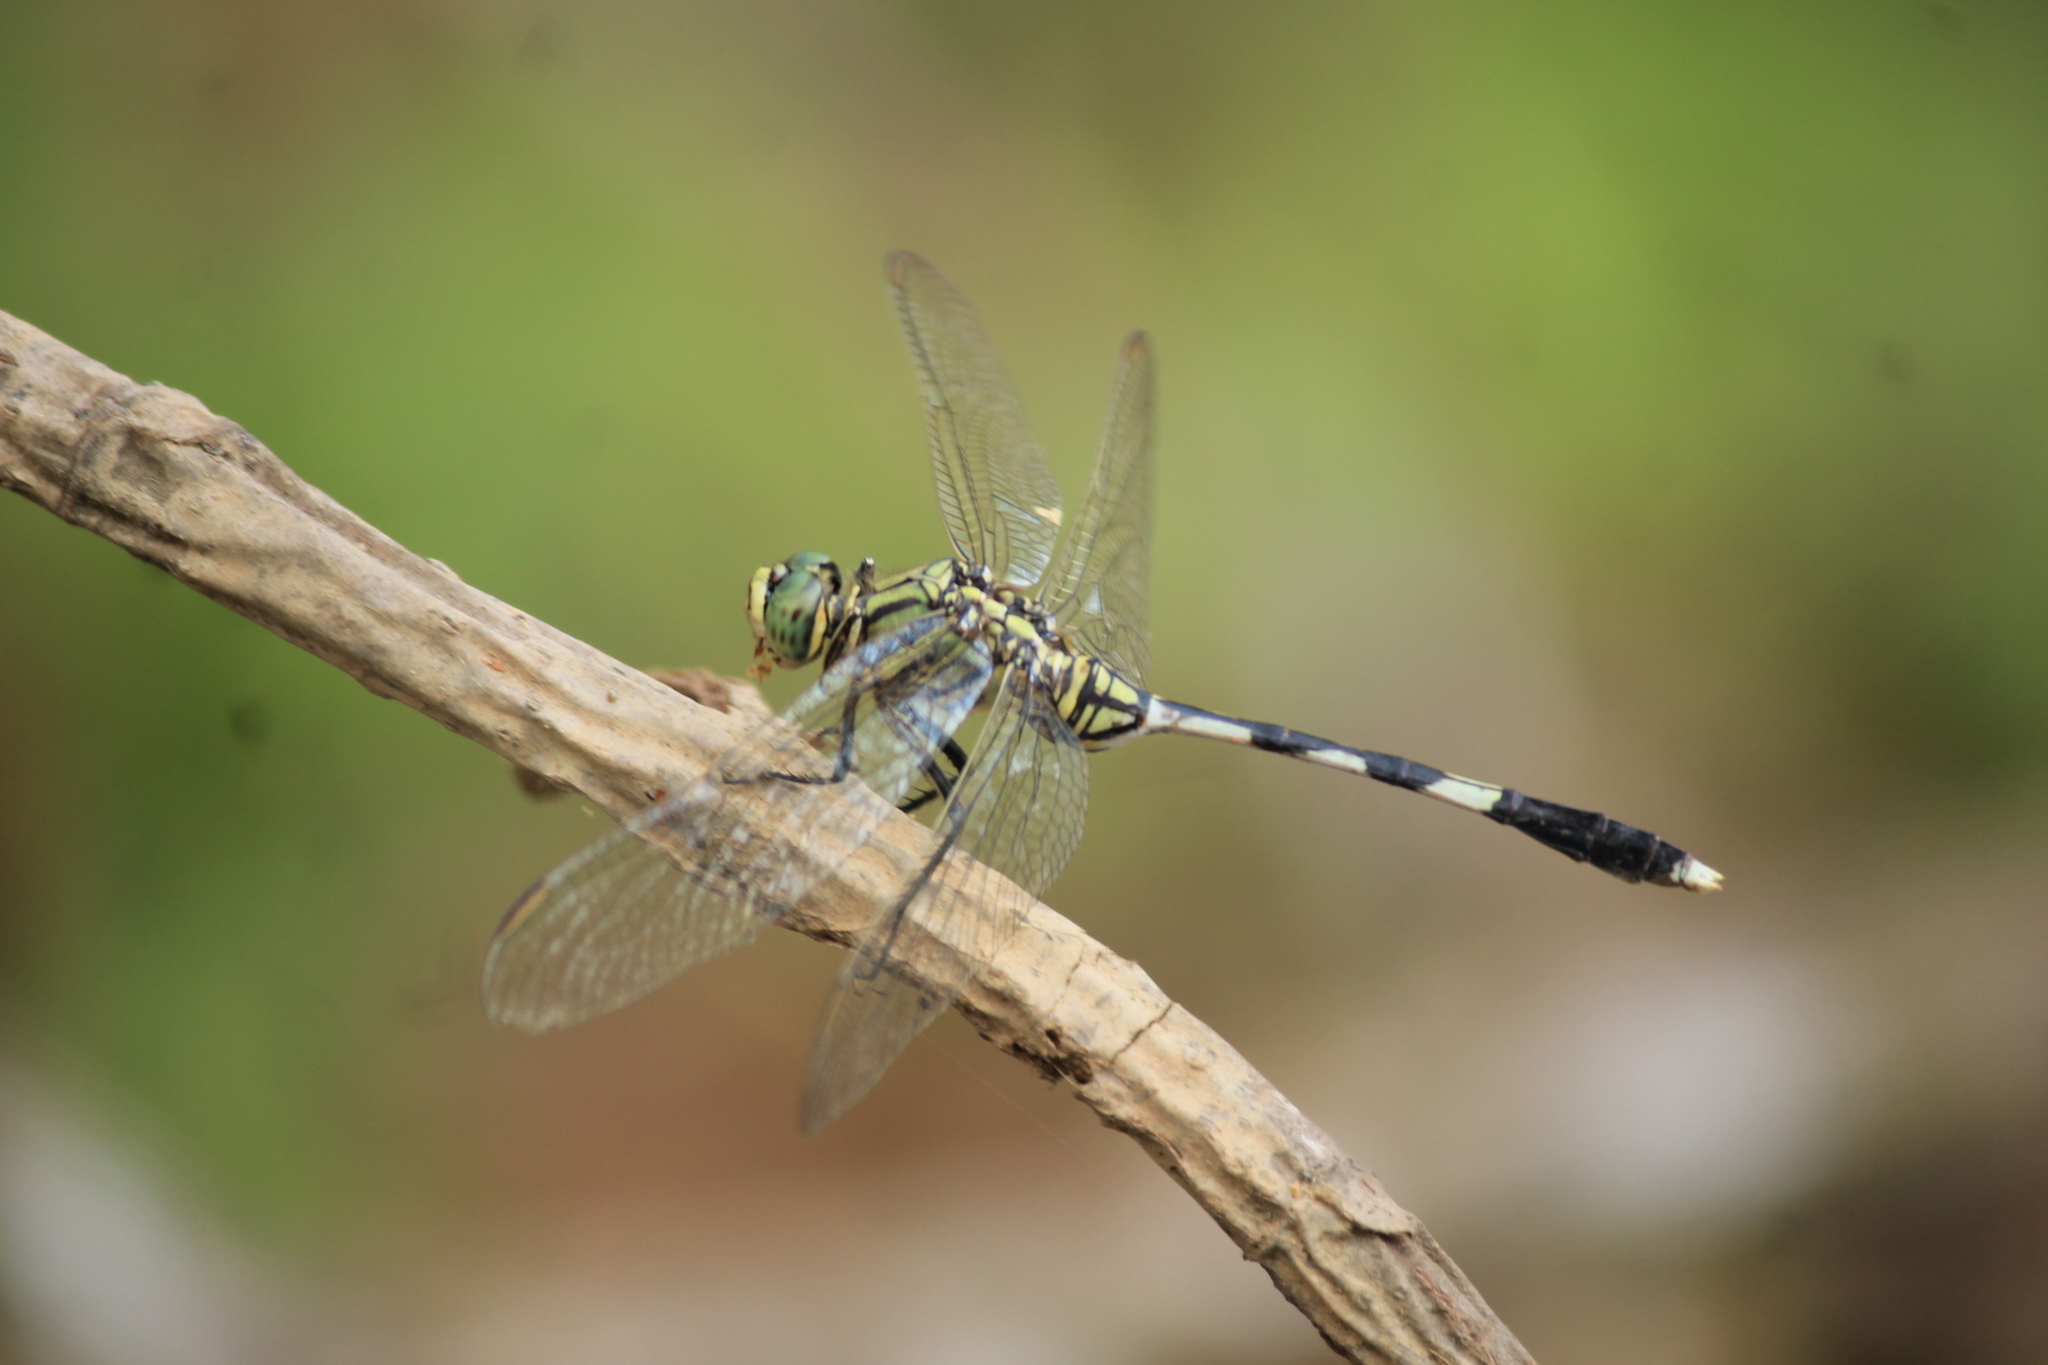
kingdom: Animalia
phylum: Arthropoda
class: Insecta
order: Odonata
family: Libellulidae
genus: Orthetrum
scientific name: Orthetrum sabina
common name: Slender skimmer
